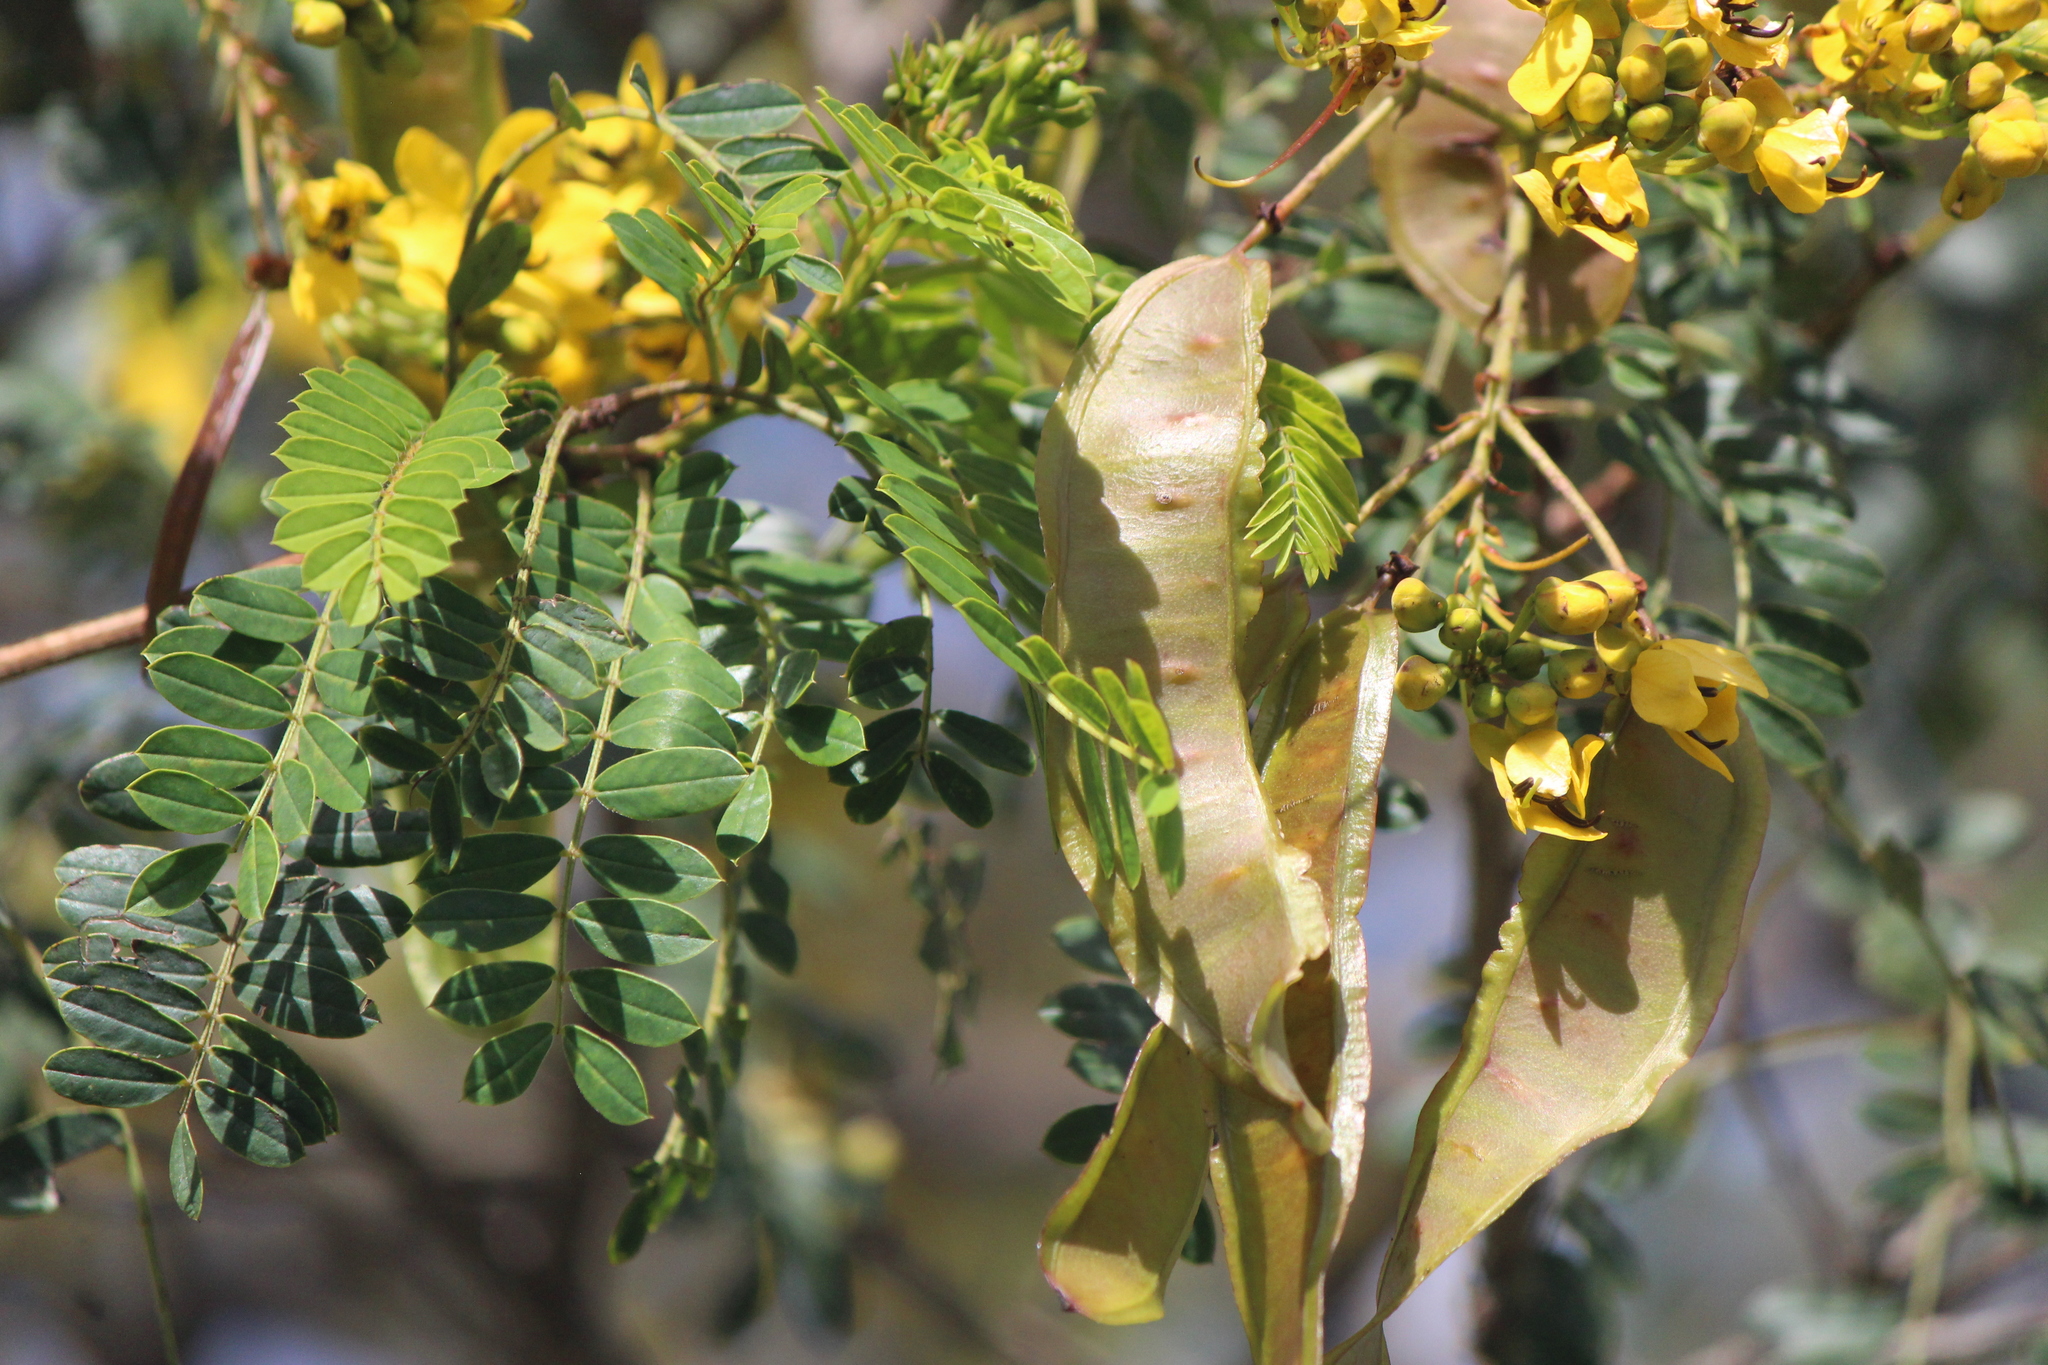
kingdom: Plantae
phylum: Tracheophyta
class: Magnoliopsida
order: Fabales
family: Fabaceae
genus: Senna
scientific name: Senna polyantha
